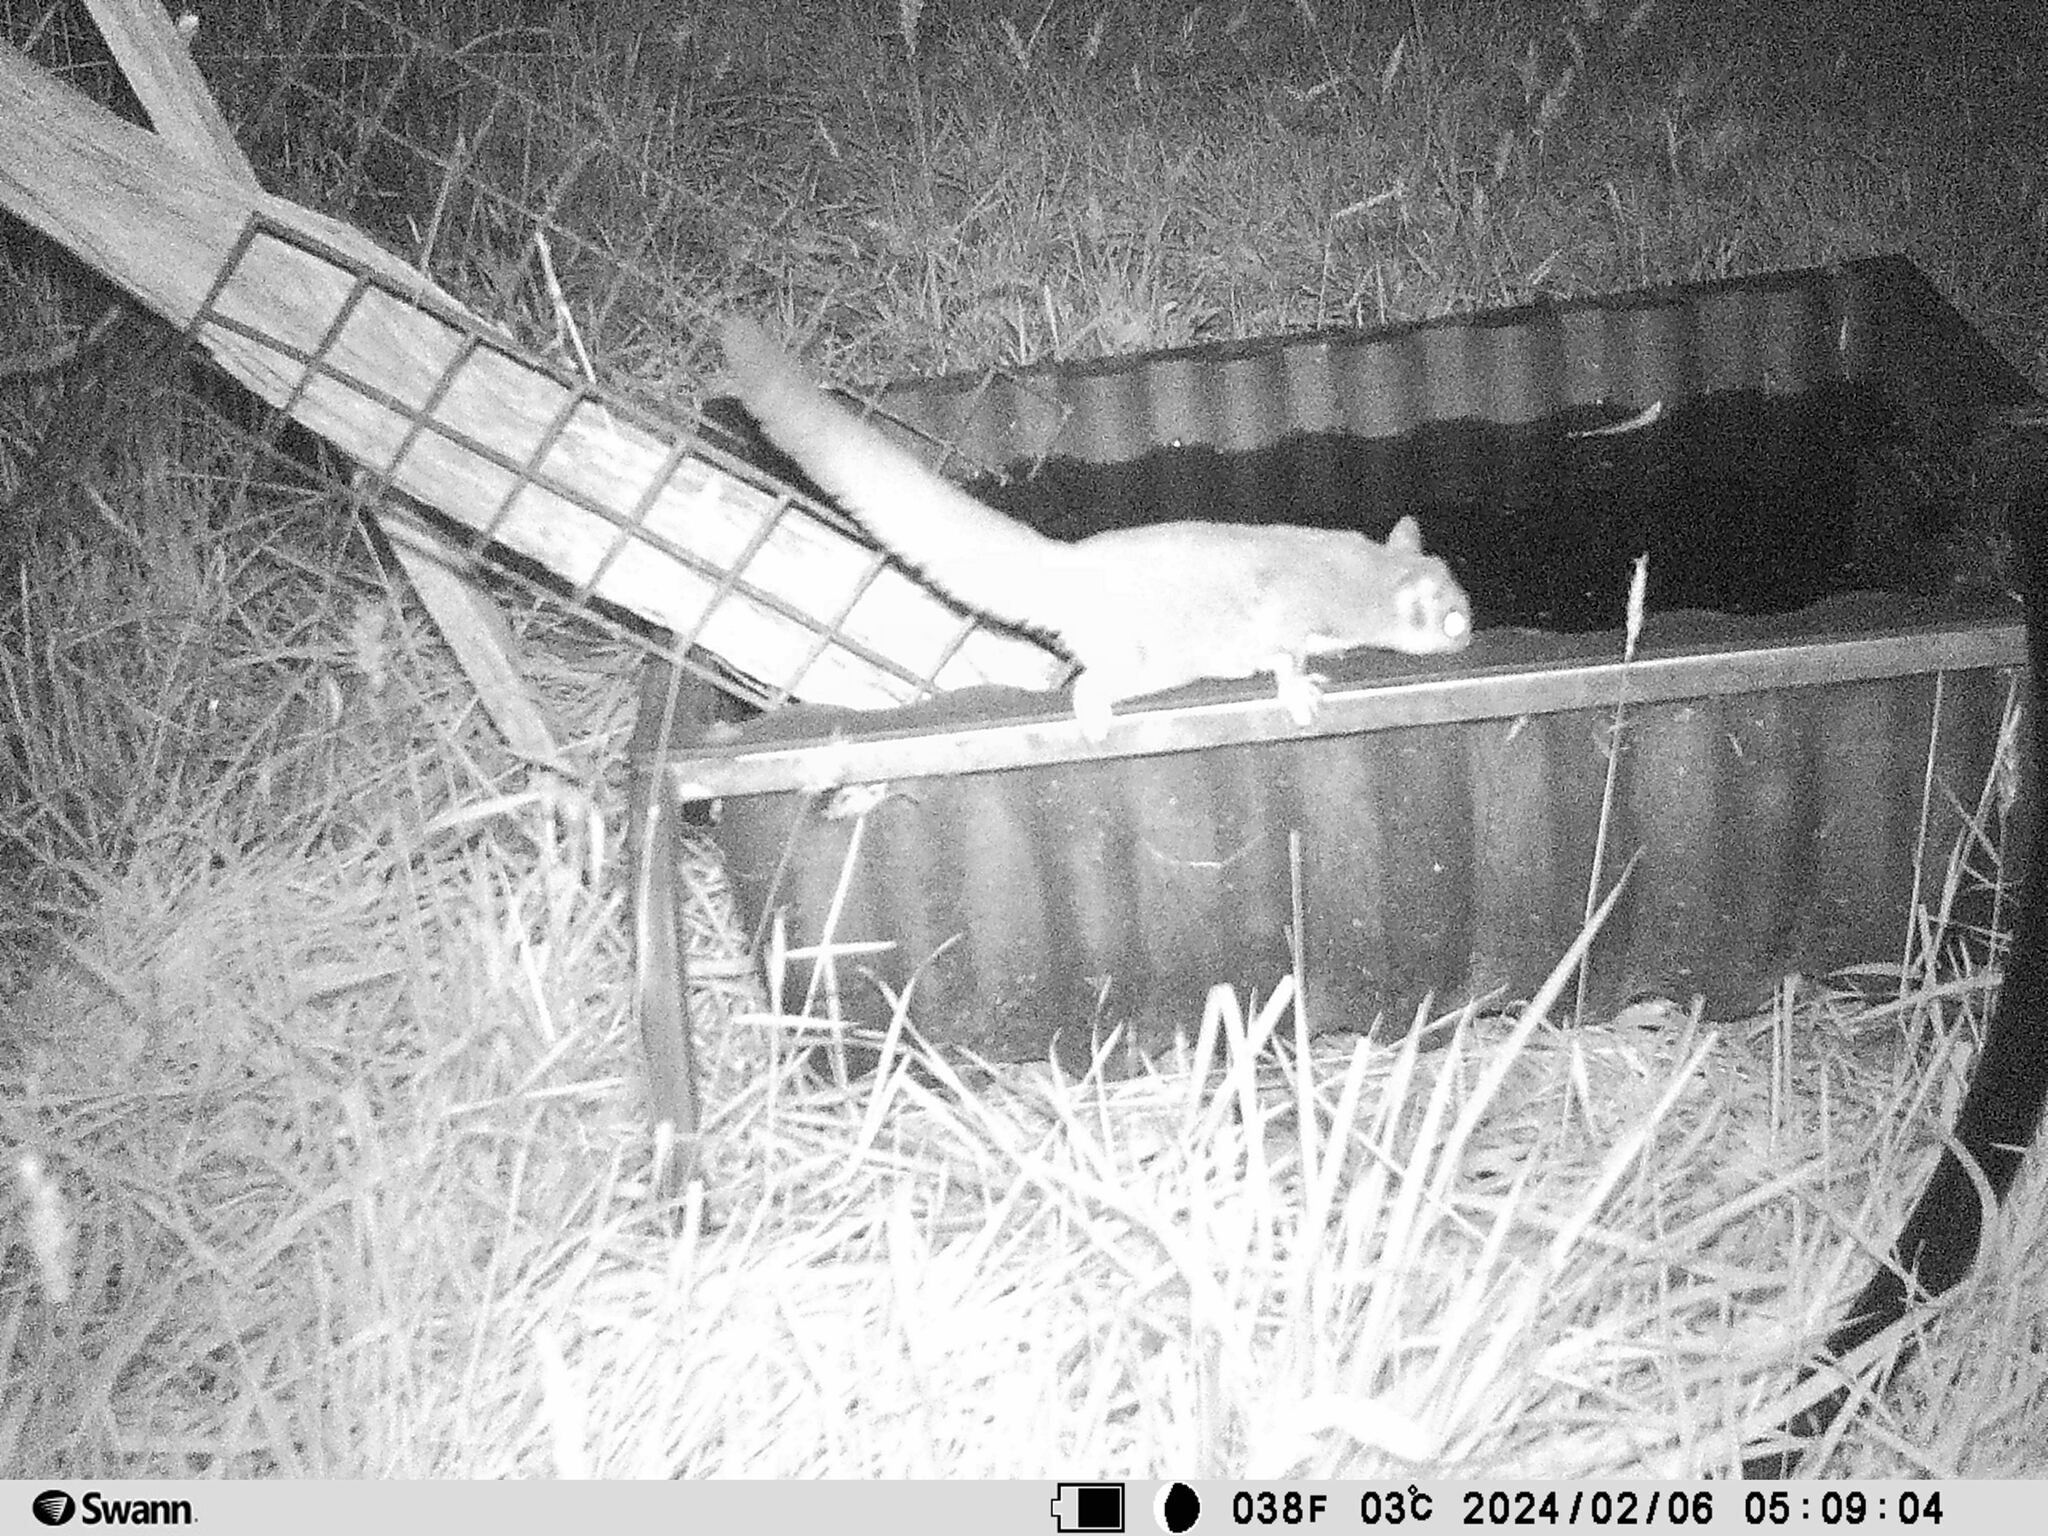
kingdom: Animalia
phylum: Chordata
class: Mammalia
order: Diprotodontia
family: Petauridae
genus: Petaurus
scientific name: Petaurus breviceps
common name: Sugar glider
